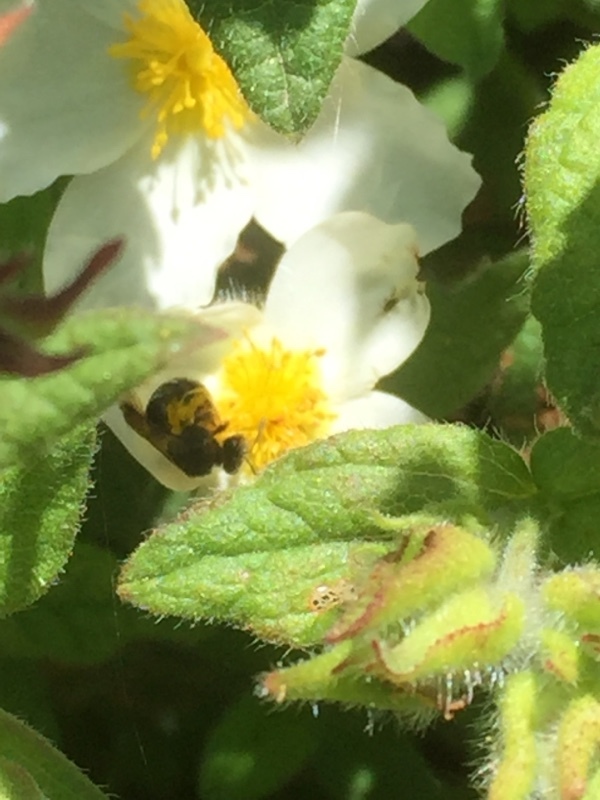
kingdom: Plantae
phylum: Tracheophyta
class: Magnoliopsida
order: Malvales
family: Cistaceae
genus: Cistus
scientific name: Cistus inflatus
